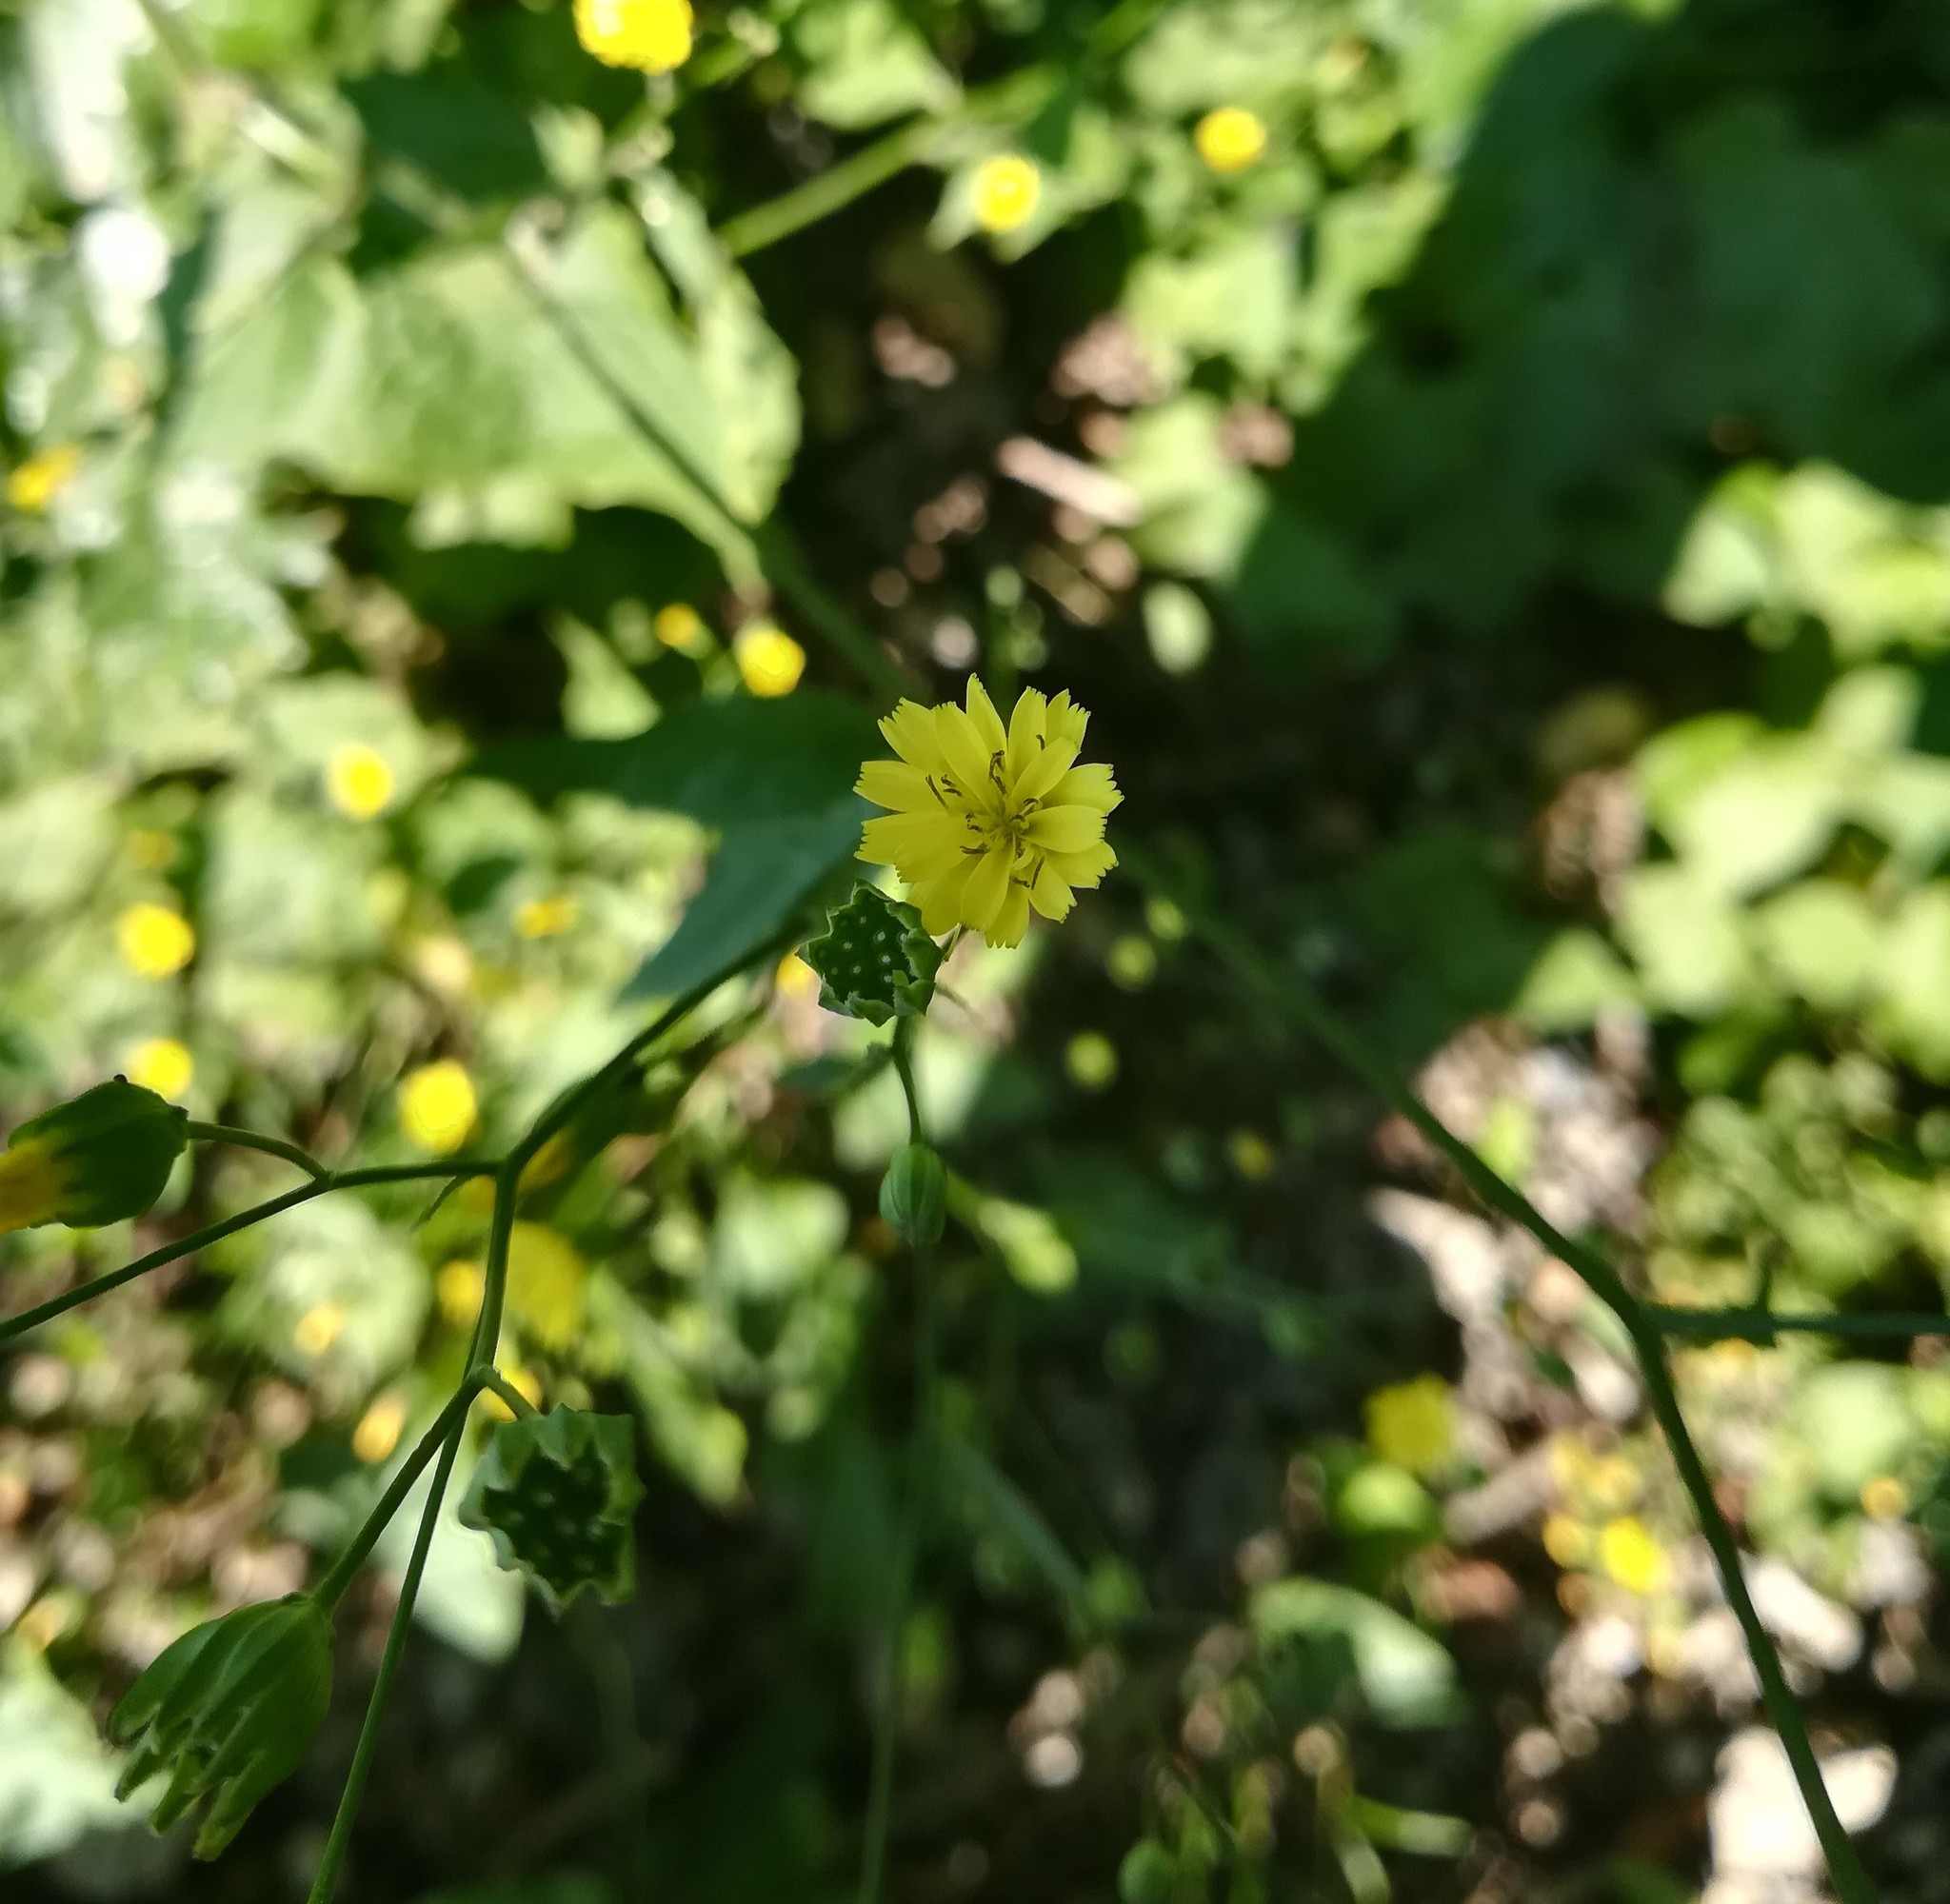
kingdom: Plantae
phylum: Tracheophyta
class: Magnoliopsida
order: Asterales
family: Asteraceae
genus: Lapsana
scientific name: Lapsana communis
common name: Nipplewort
